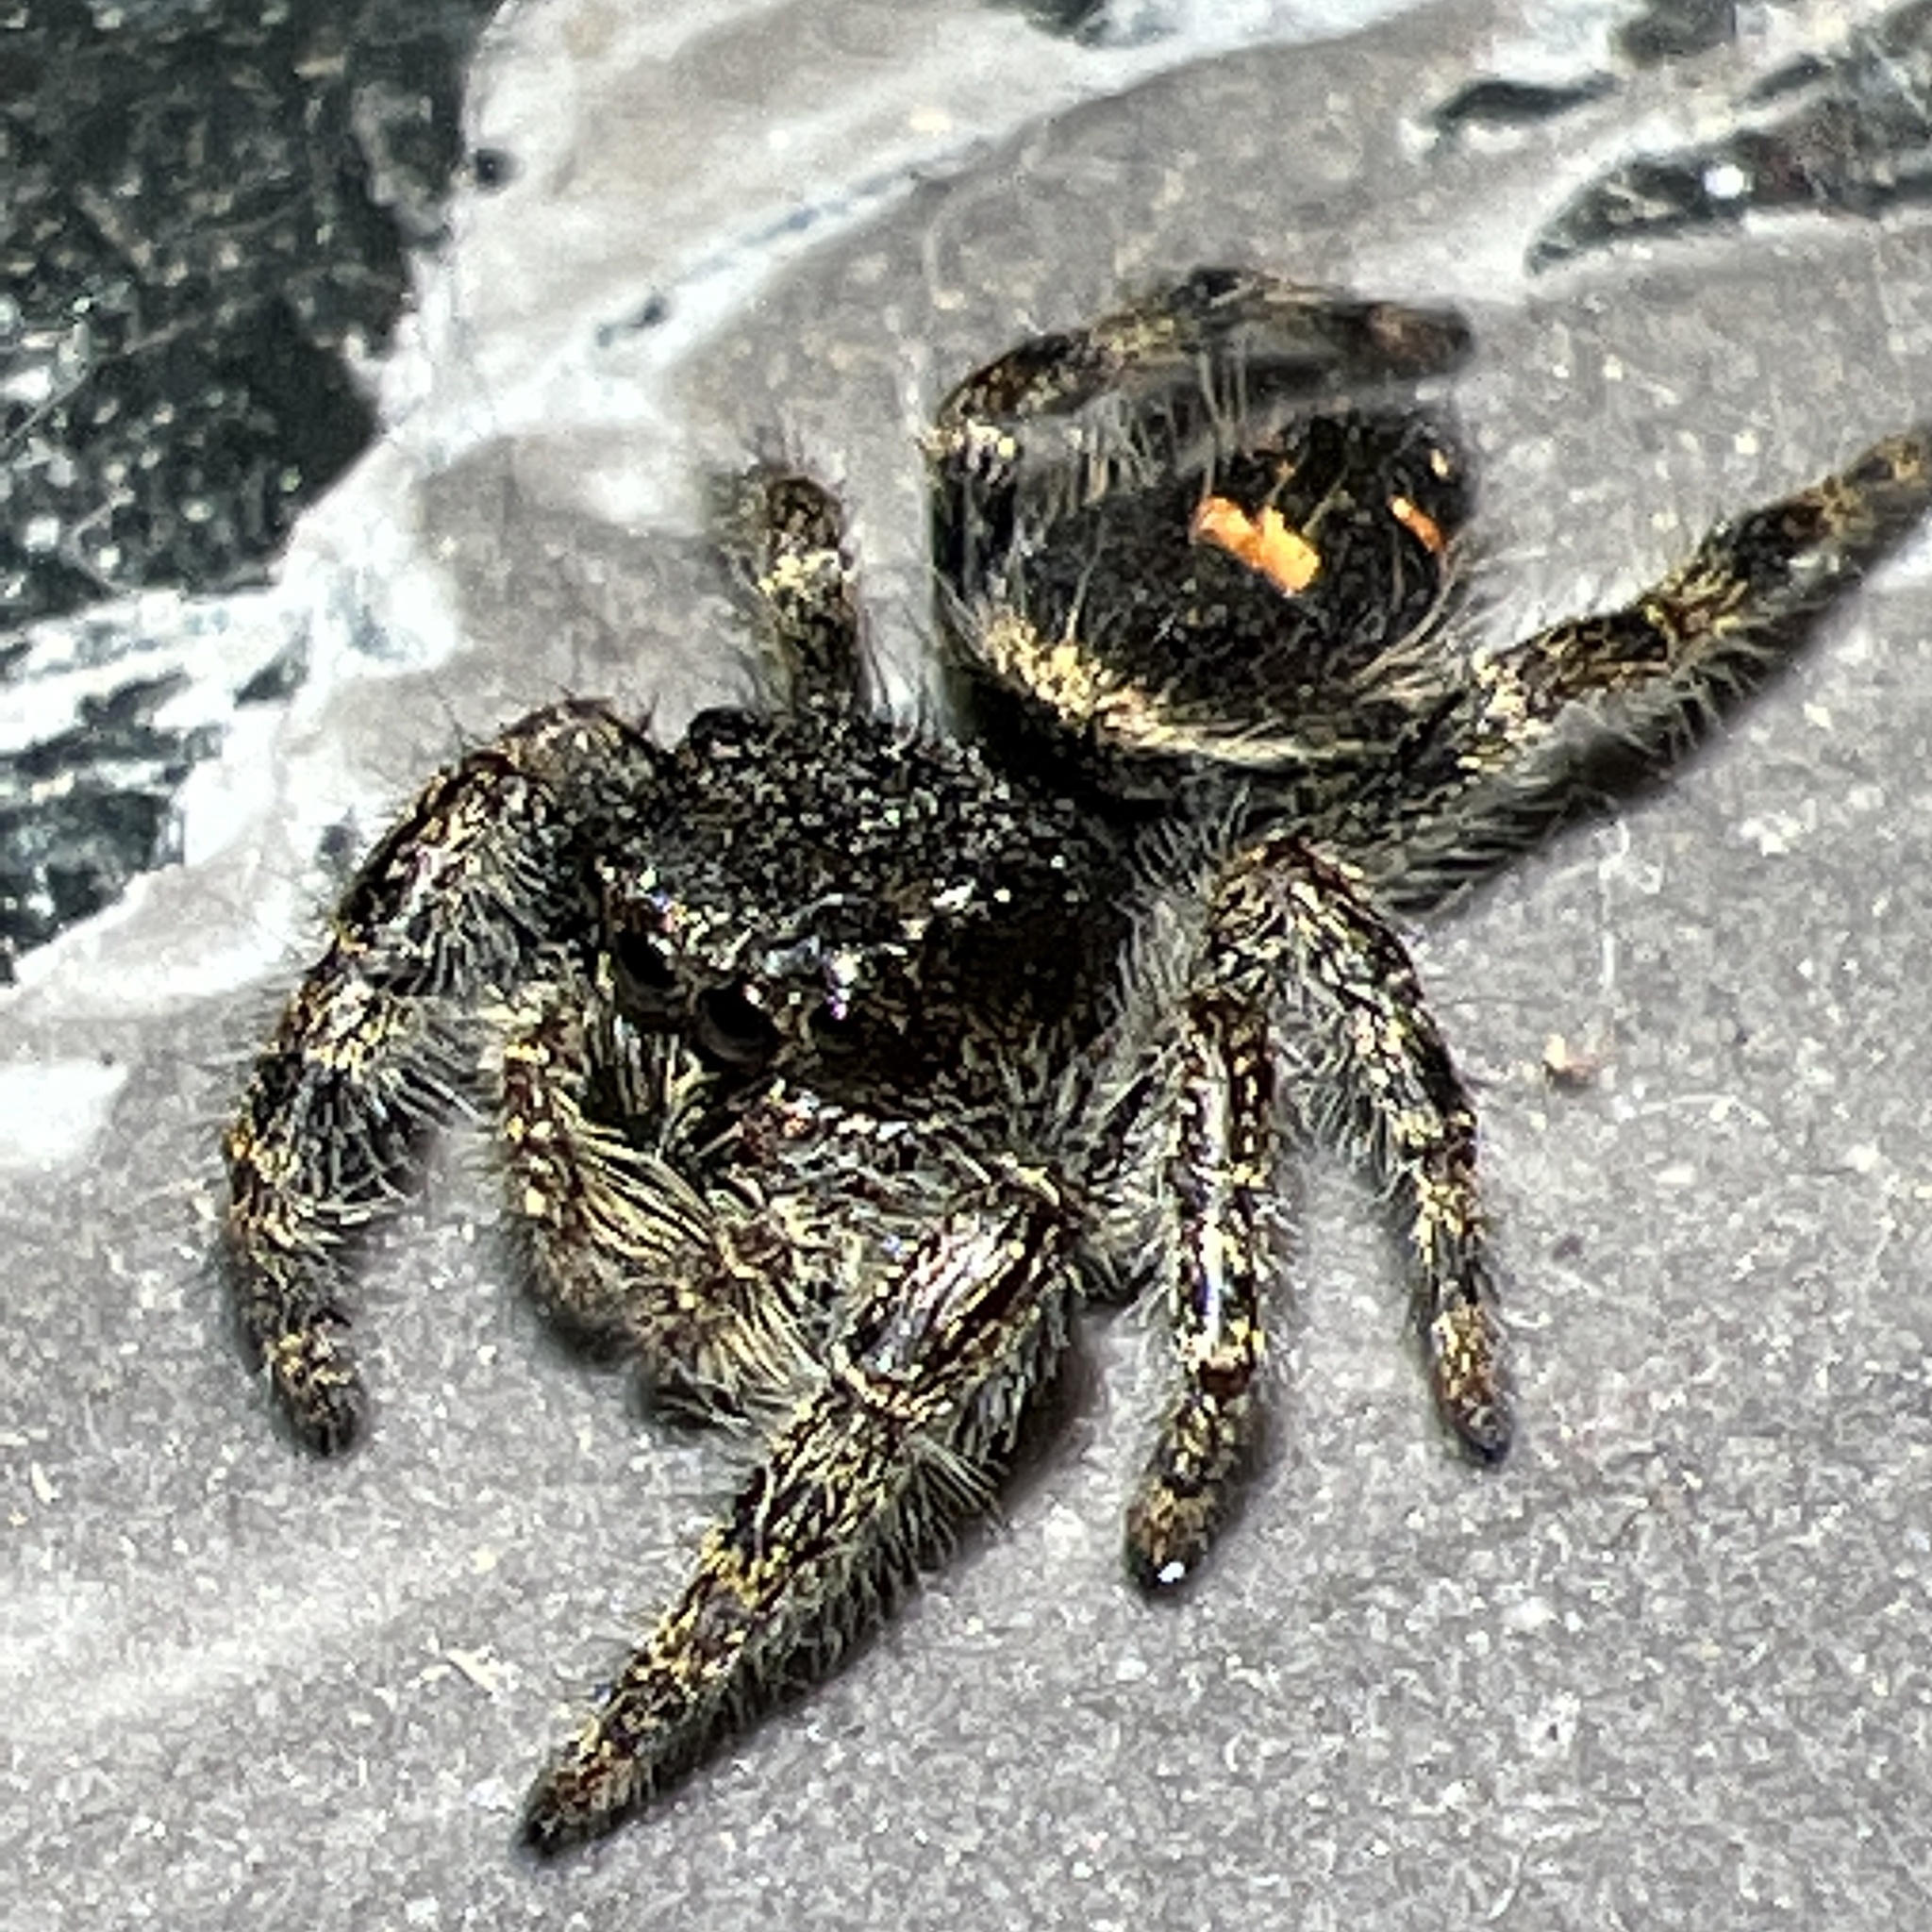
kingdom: Animalia
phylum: Arthropoda
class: Arachnida
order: Araneae
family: Salticidae
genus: Phidippus
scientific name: Phidippus audax
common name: Bold jumper
